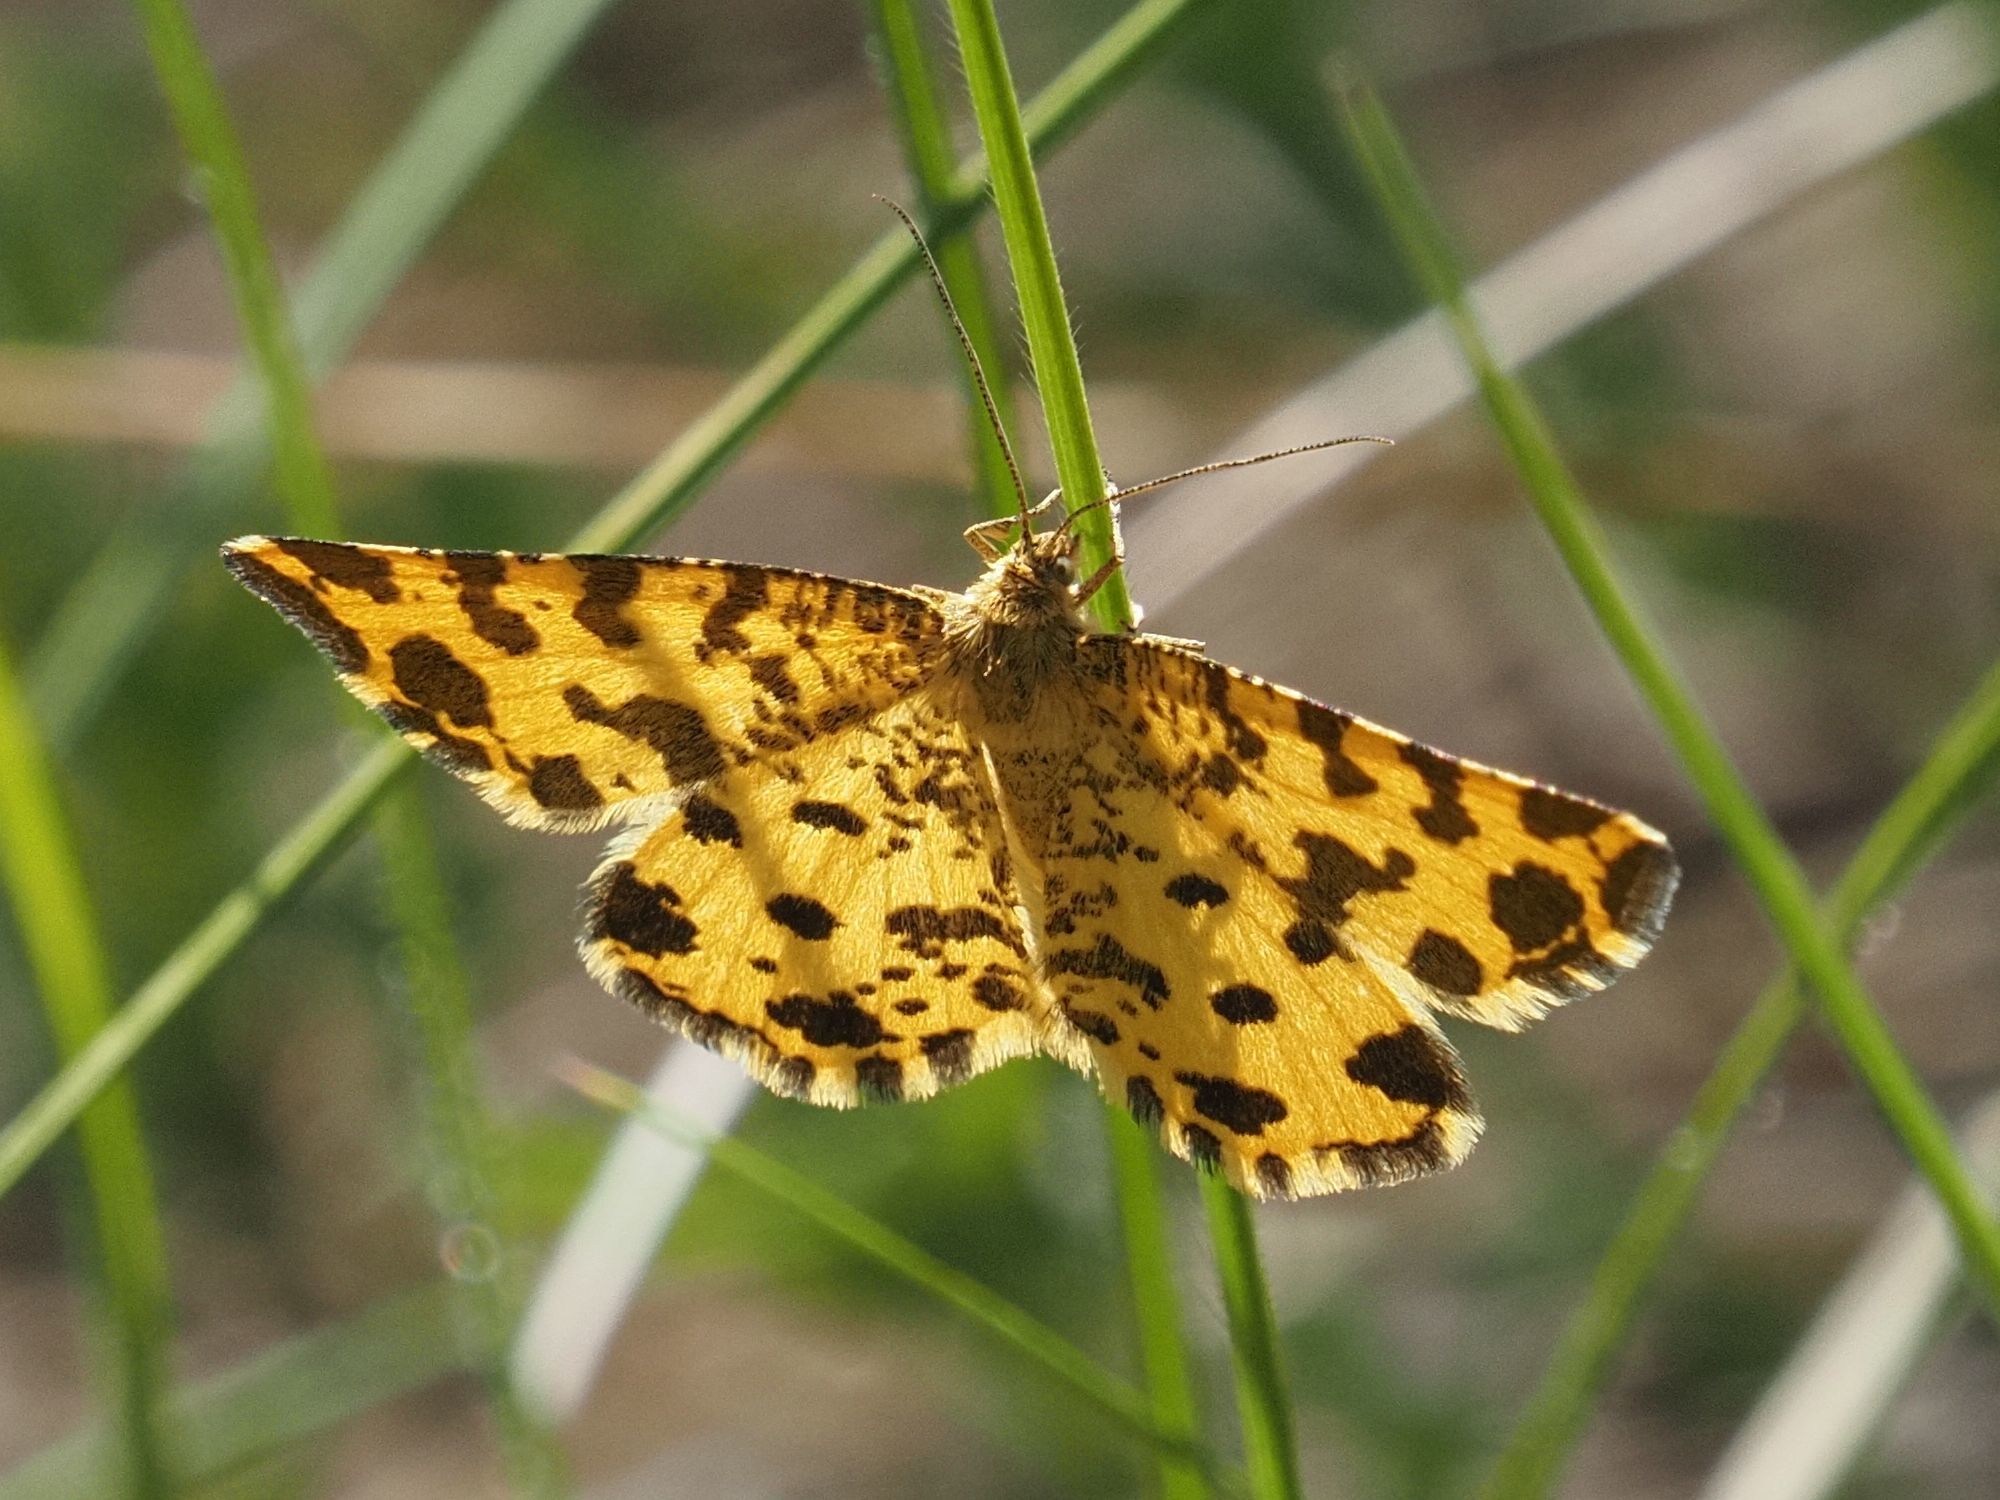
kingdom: Animalia
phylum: Arthropoda
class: Insecta
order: Lepidoptera
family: Geometridae
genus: Pseudopanthera
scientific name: Pseudopanthera macularia
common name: Speckled yellow
